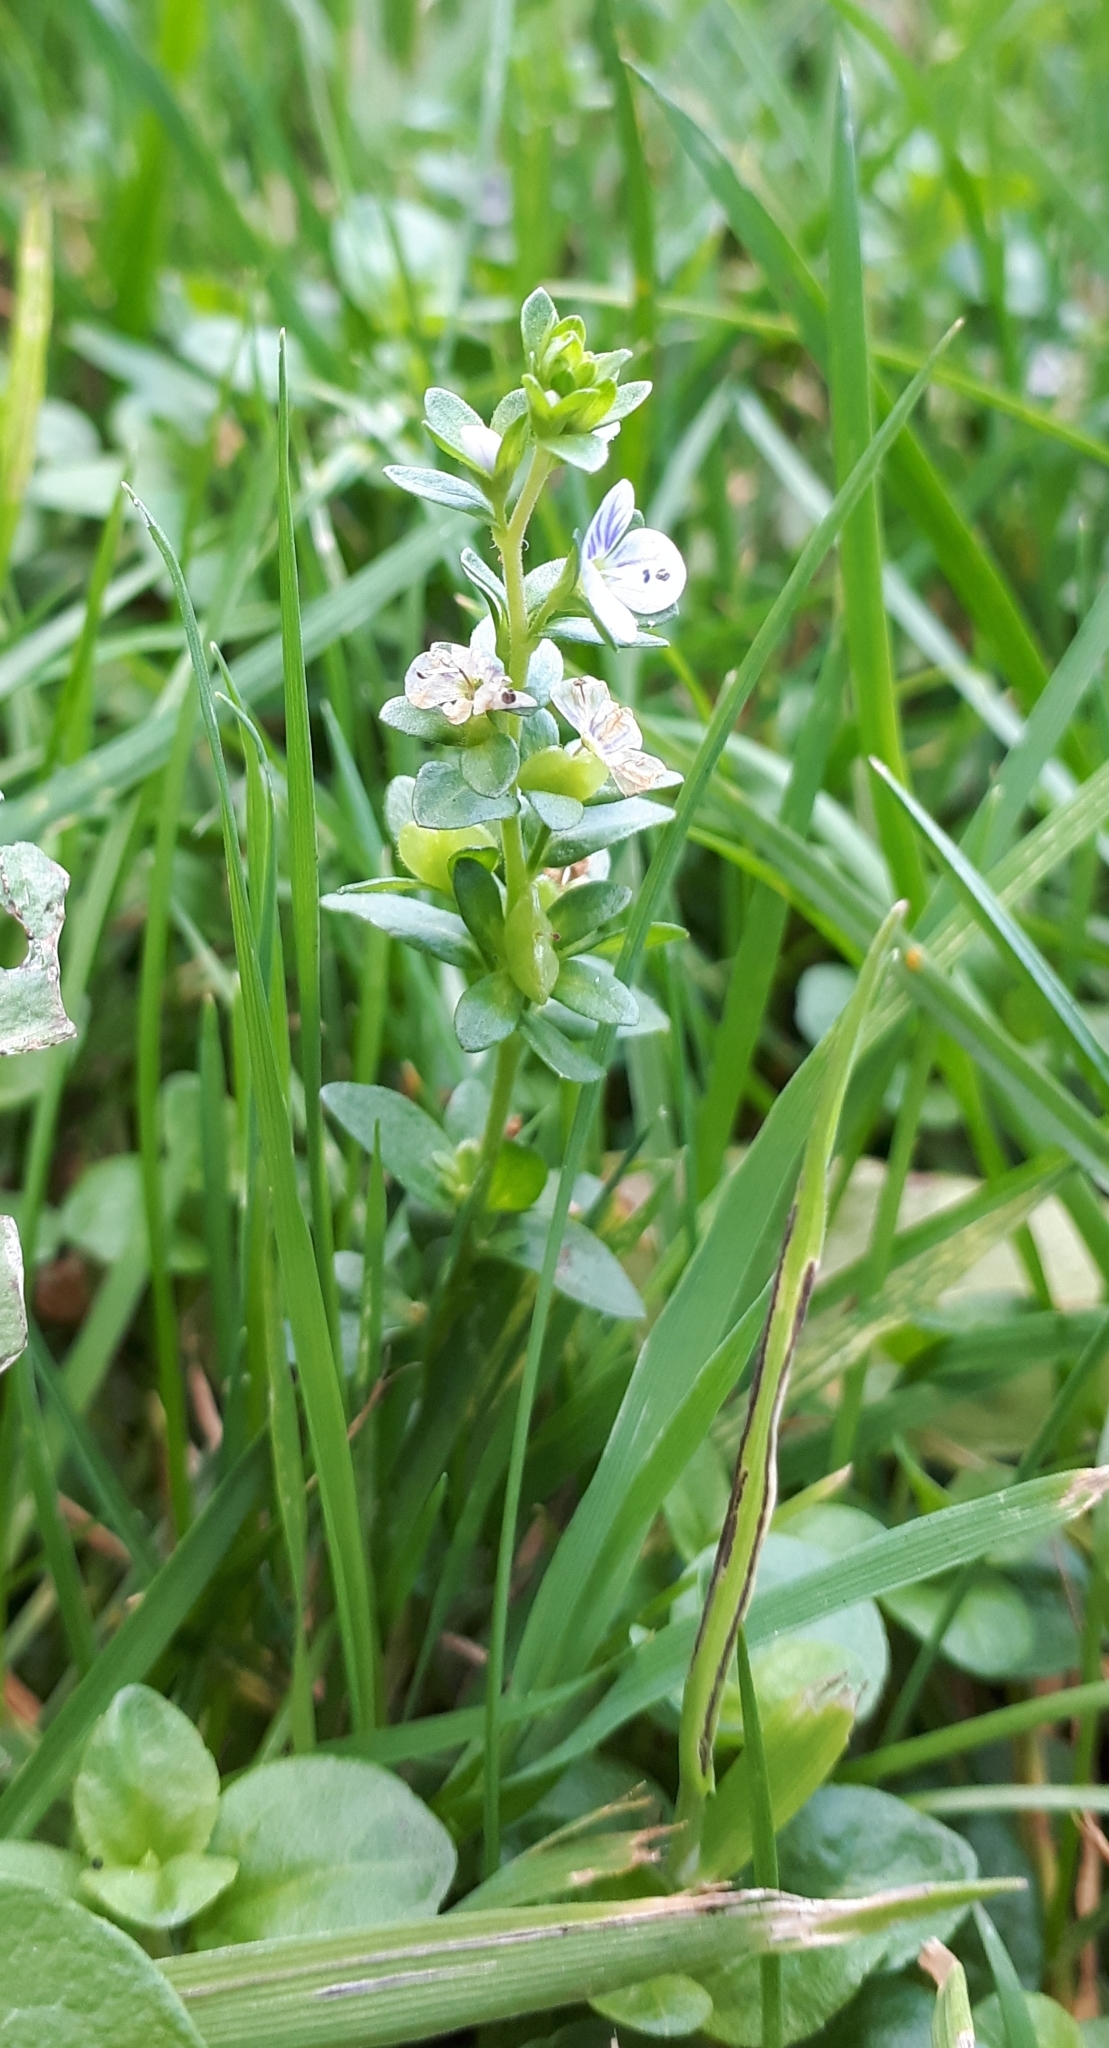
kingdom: Plantae
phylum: Tracheophyta
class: Magnoliopsida
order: Lamiales
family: Plantaginaceae
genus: Veronica
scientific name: Veronica serpyllifolia
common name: Thyme-leaved speedwell
